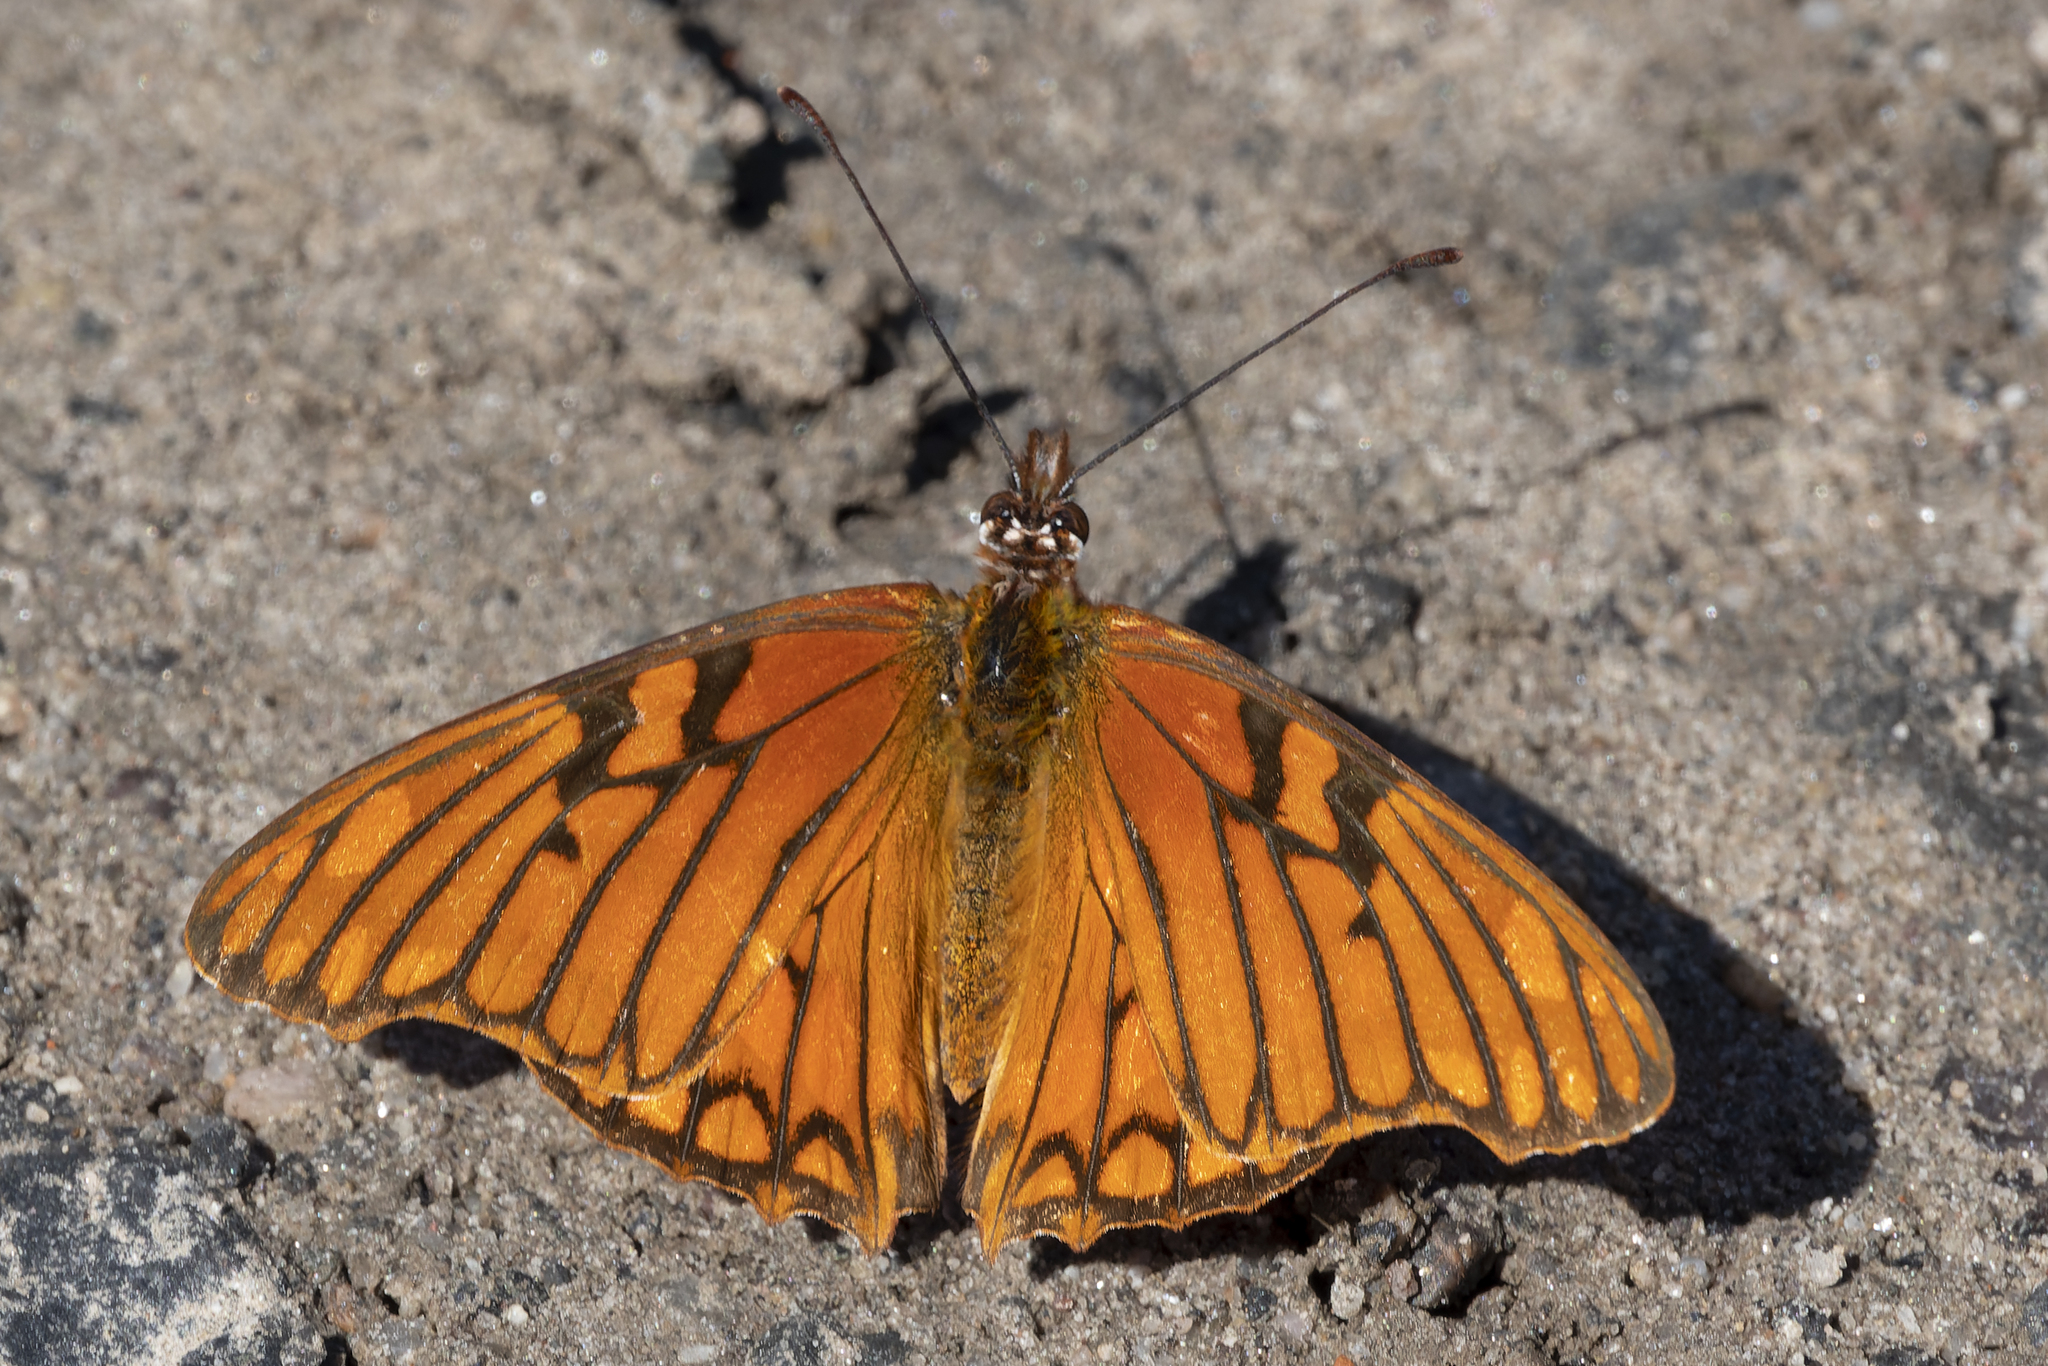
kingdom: Animalia
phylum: Arthropoda
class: Insecta
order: Lepidoptera
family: Nymphalidae
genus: Dione
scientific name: Dione glycera
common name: Andean silverspot
